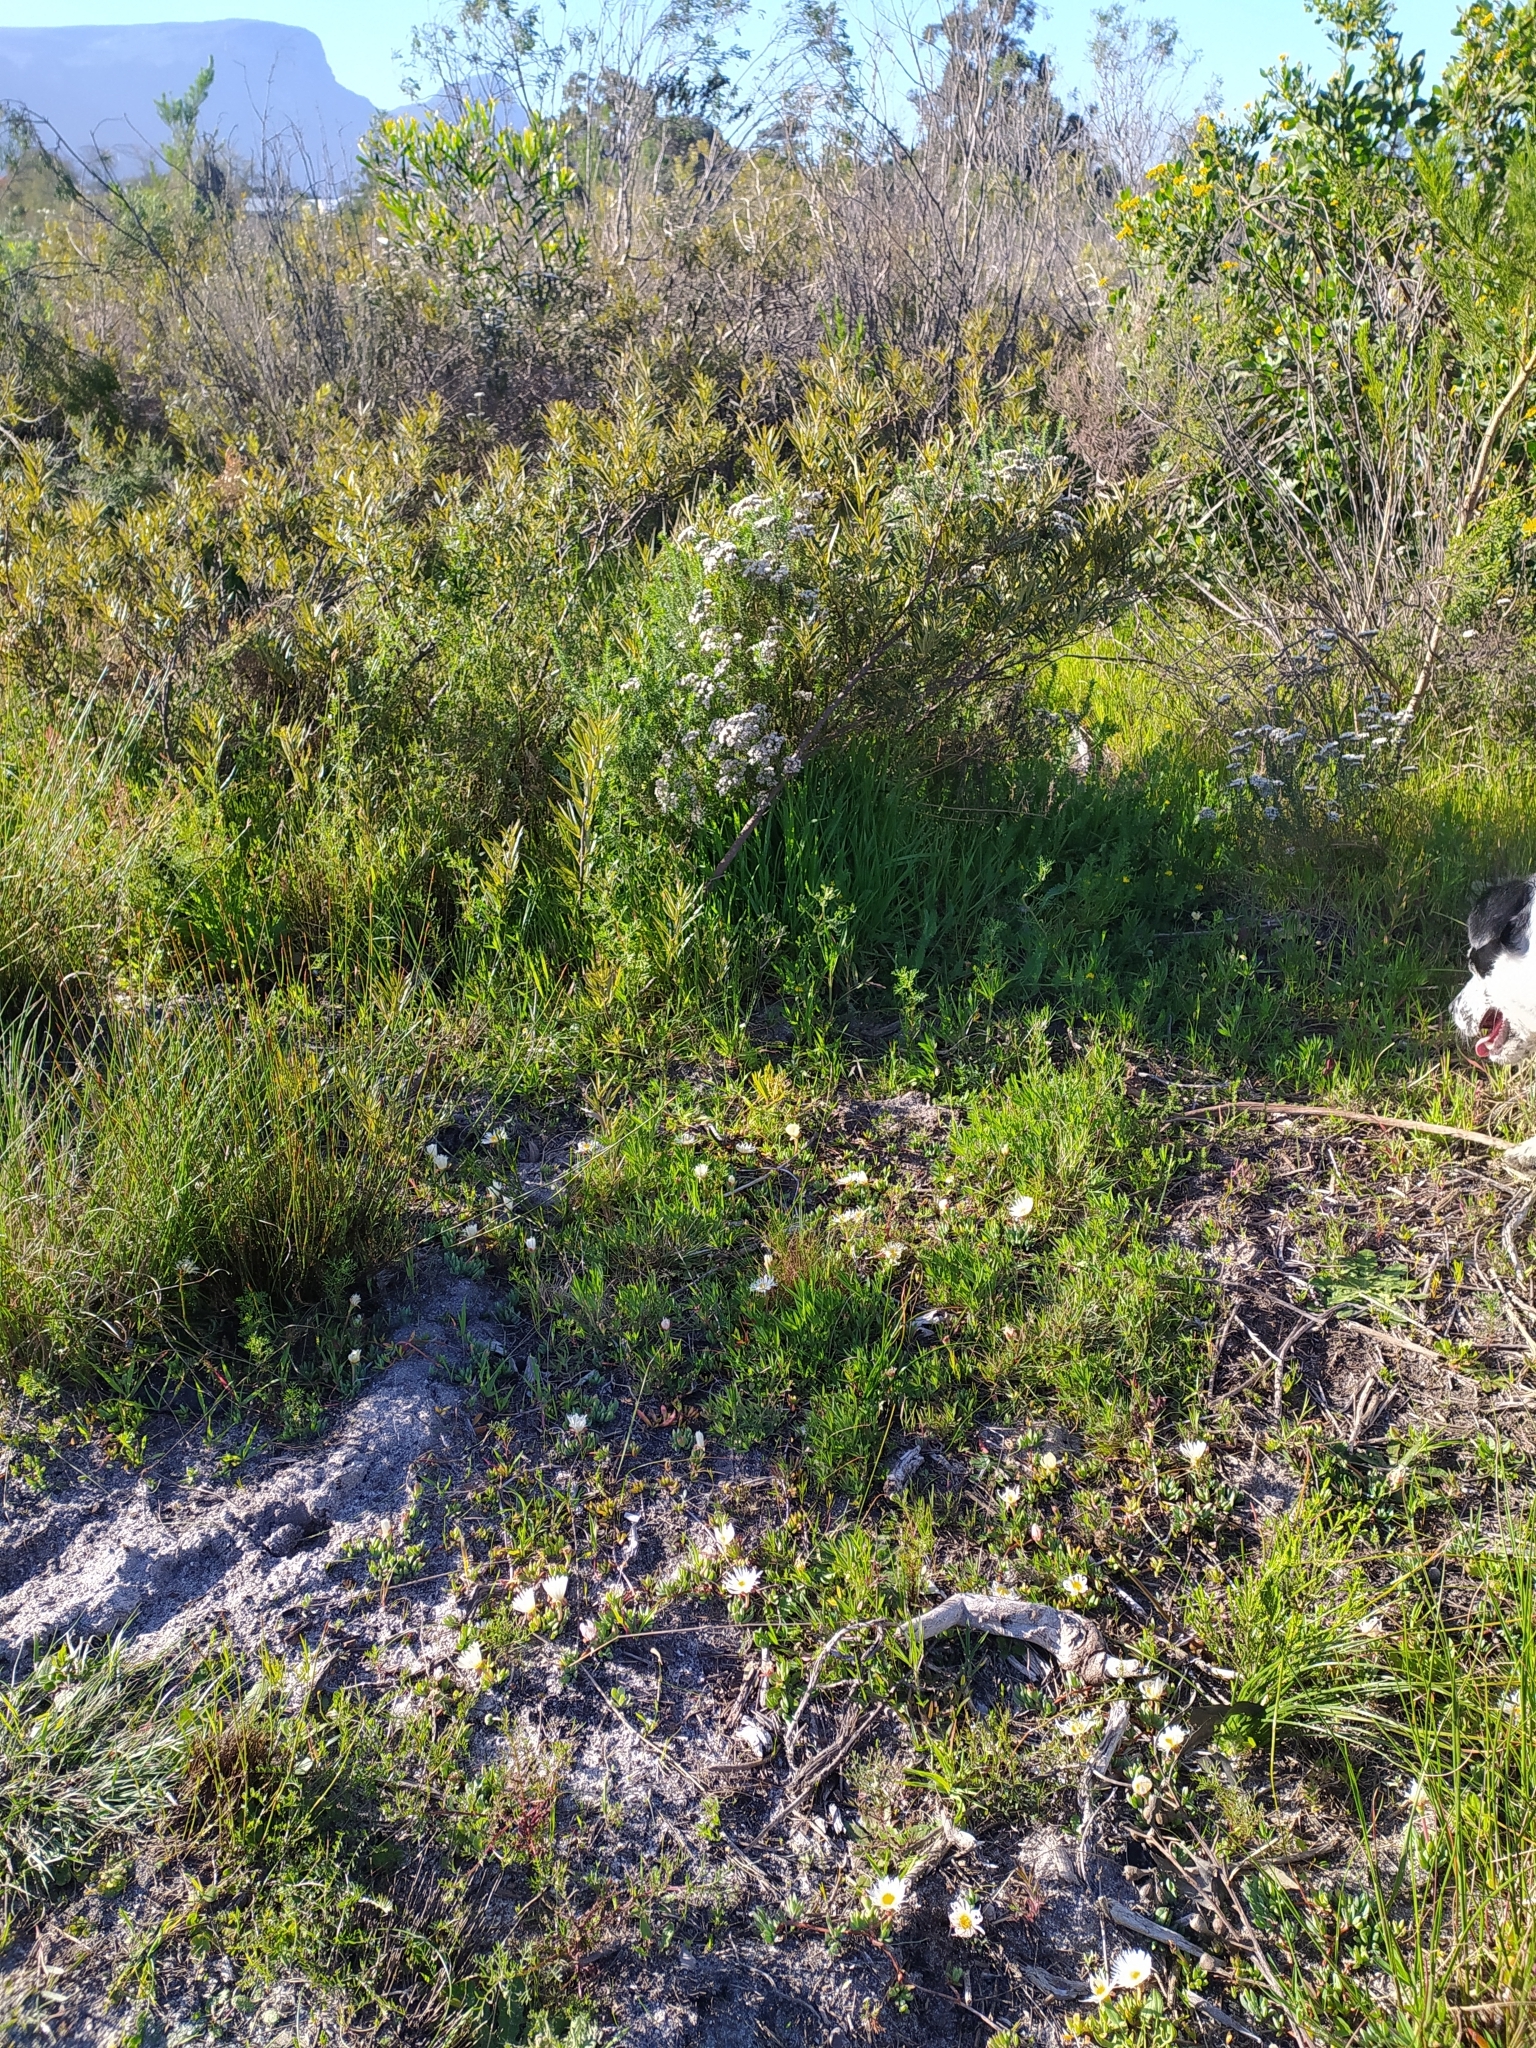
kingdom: Plantae
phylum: Tracheophyta
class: Magnoliopsida
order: Caryophyllales
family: Aizoaceae
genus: Lampranthus
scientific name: Lampranthus reptans
